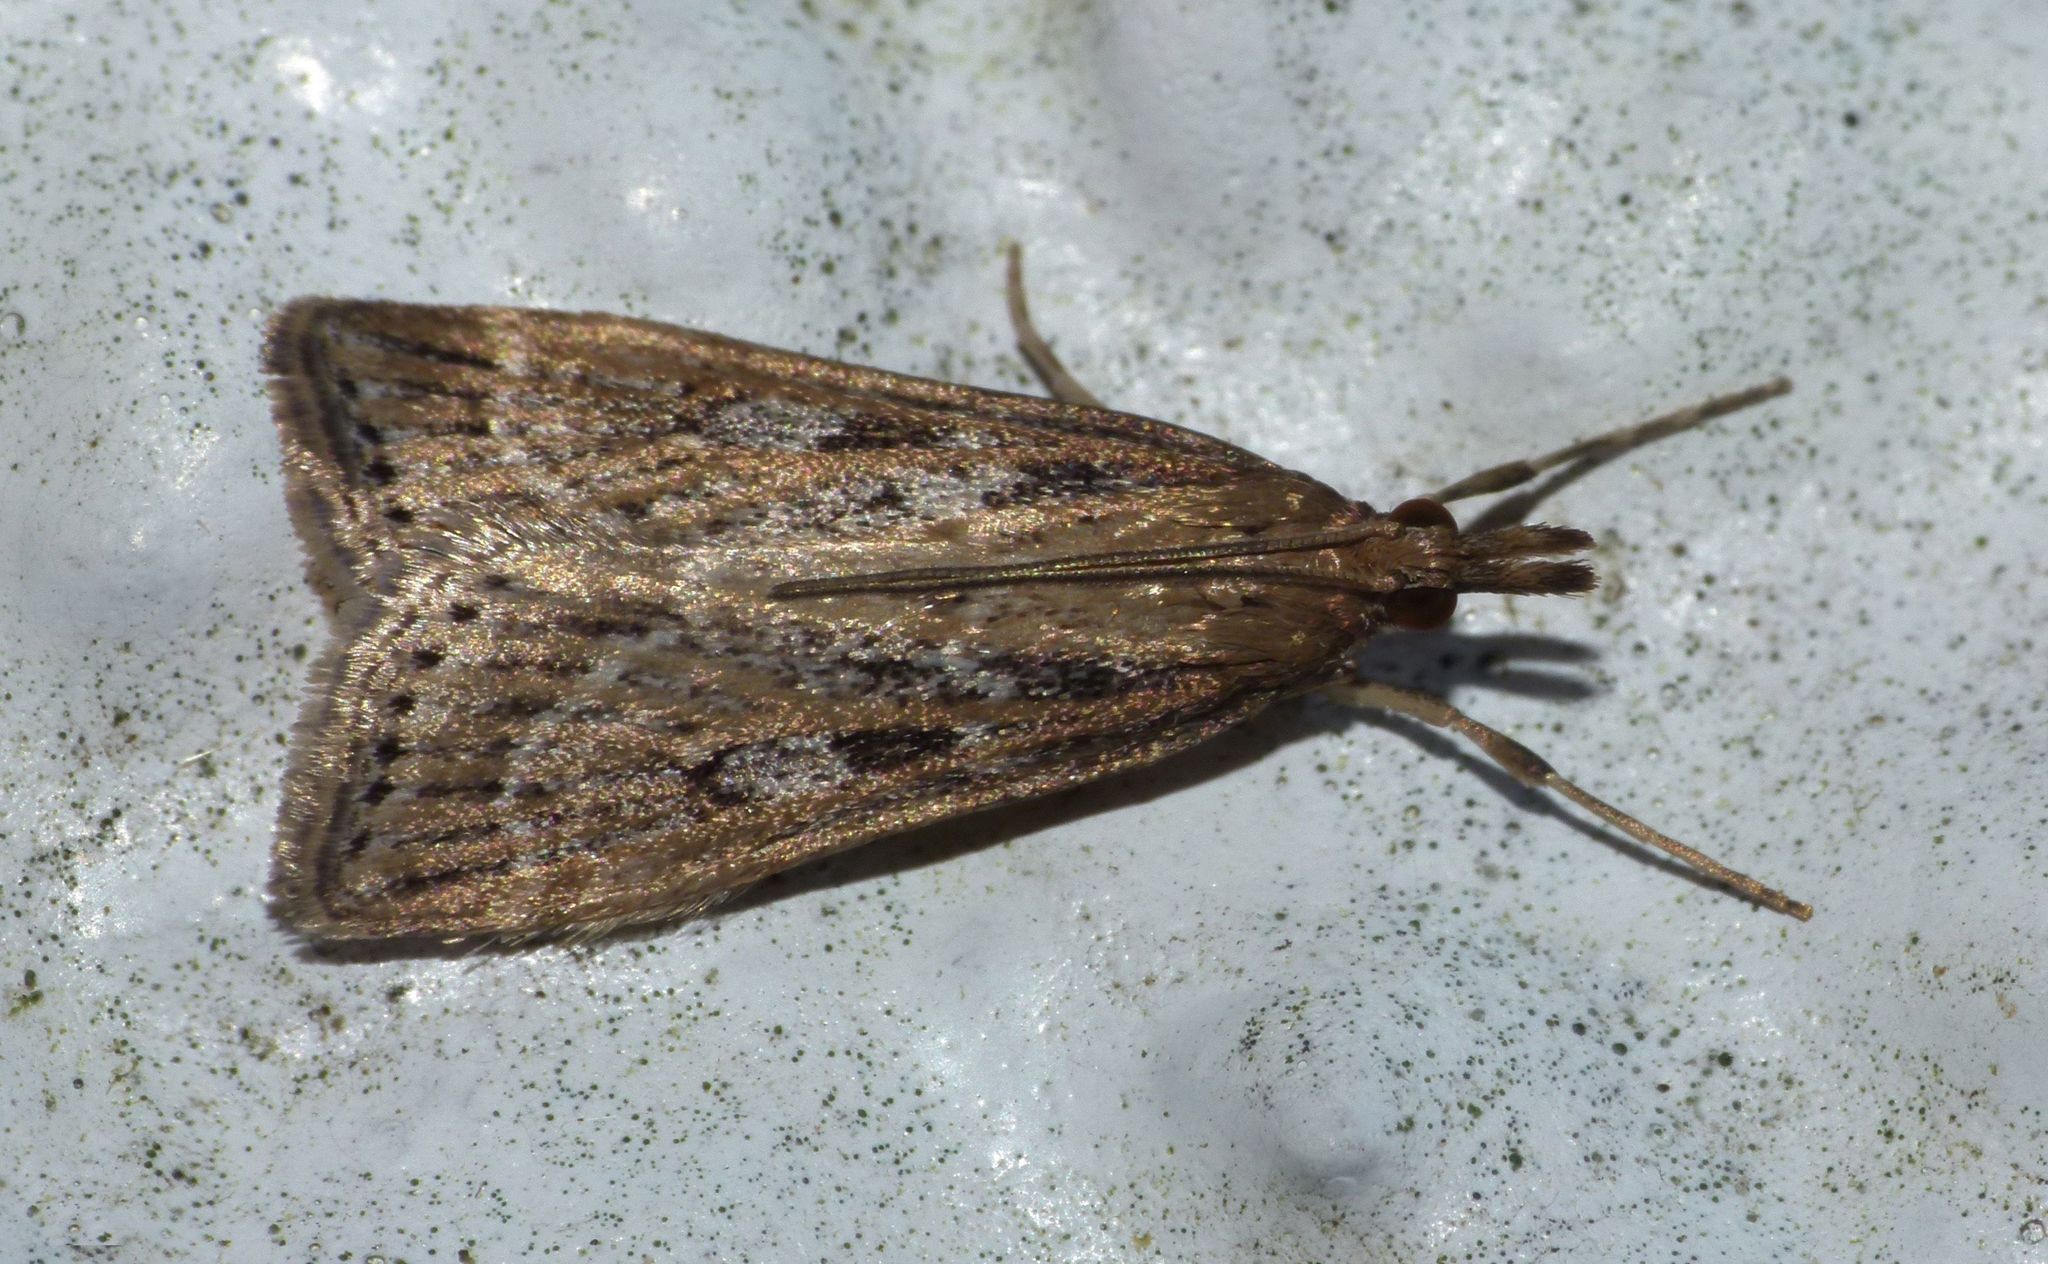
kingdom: Animalia
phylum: Arthropoda
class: Insecta
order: Lepidoptera
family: Crambidae
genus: Eudonia
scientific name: Eudonia octophora
